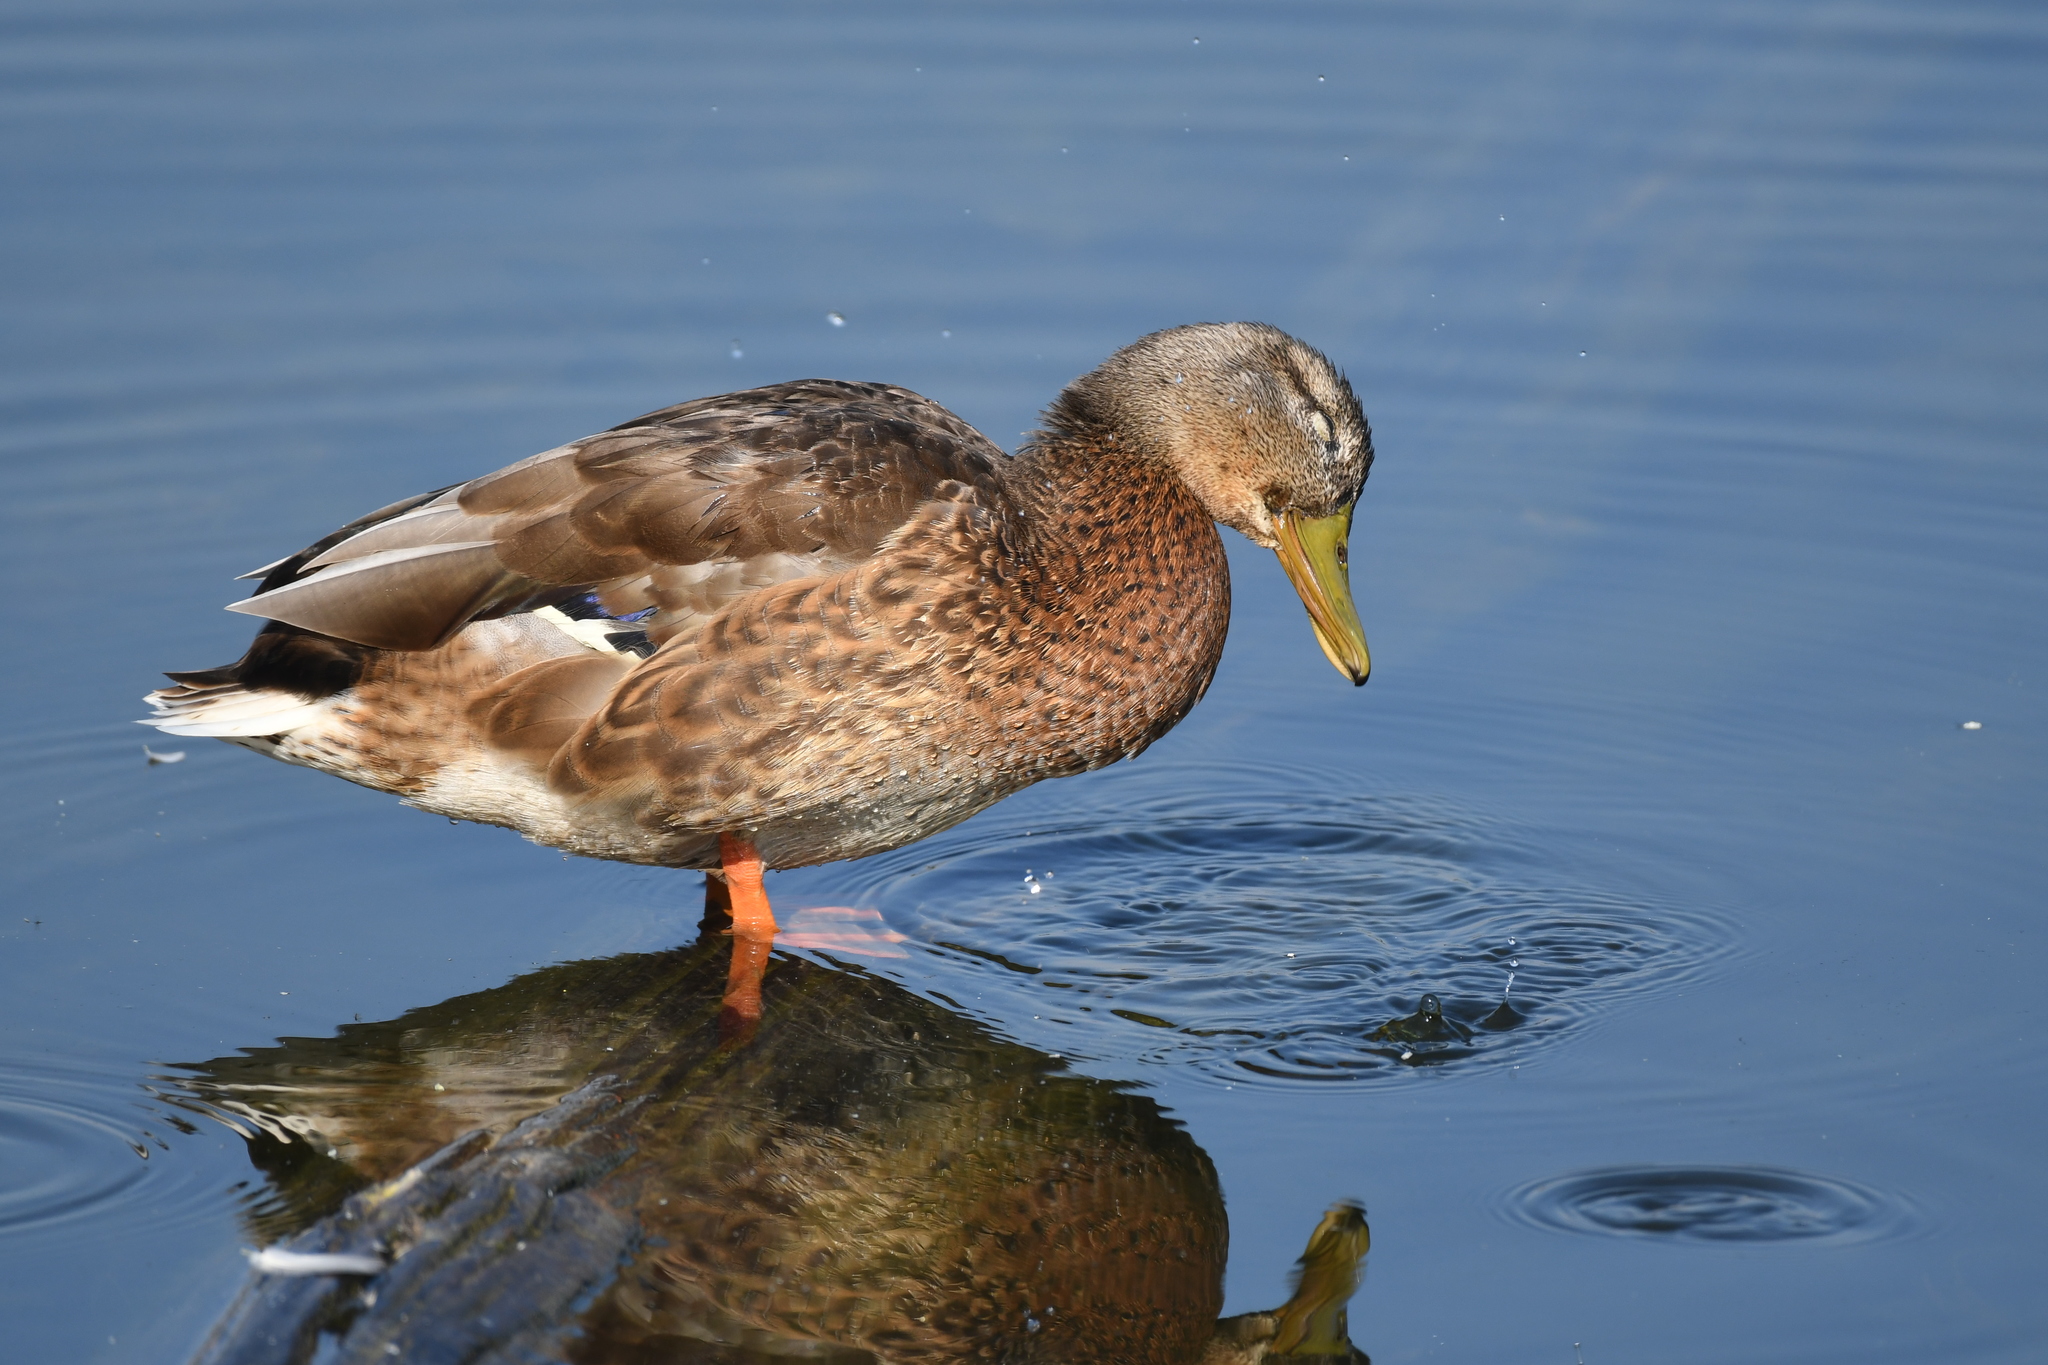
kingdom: Animalia
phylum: Chordata
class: Aves
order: Anseriformes
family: Anatidae
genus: Anas
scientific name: Anas platyrhynchos
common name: Mallard
